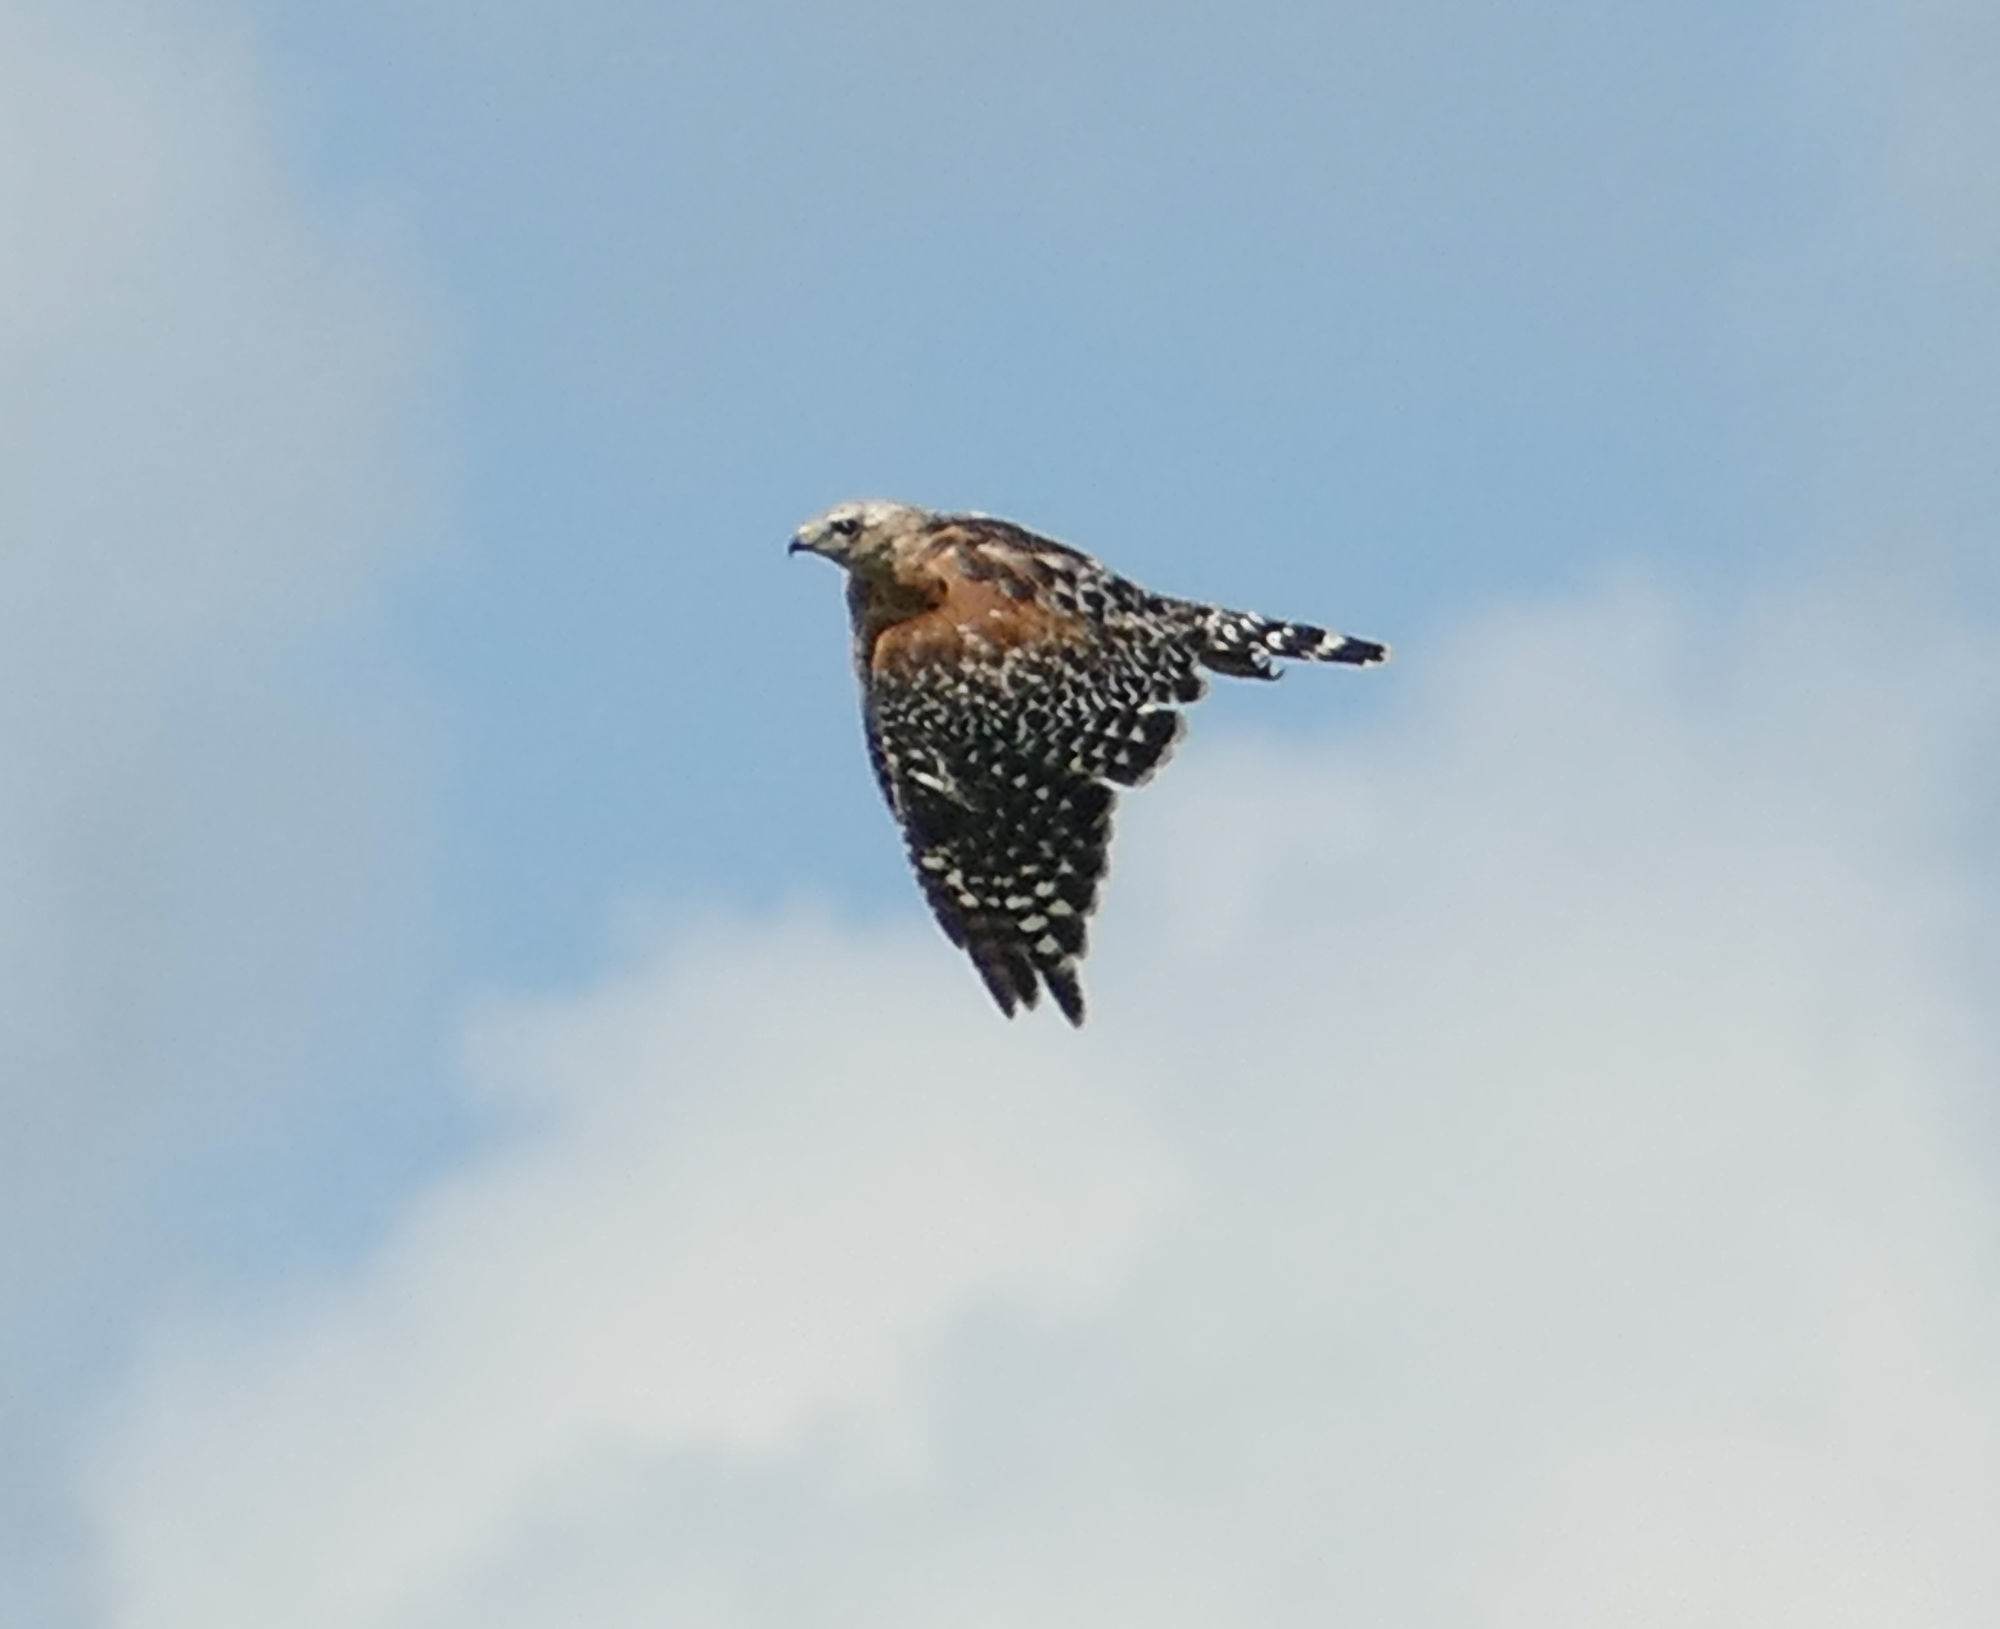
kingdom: Animalia
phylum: Chordata
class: Aves
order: Accipitriformes
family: Accipitridae
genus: Buteo
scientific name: Buteo lineatus
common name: Red-shouldered hawk
